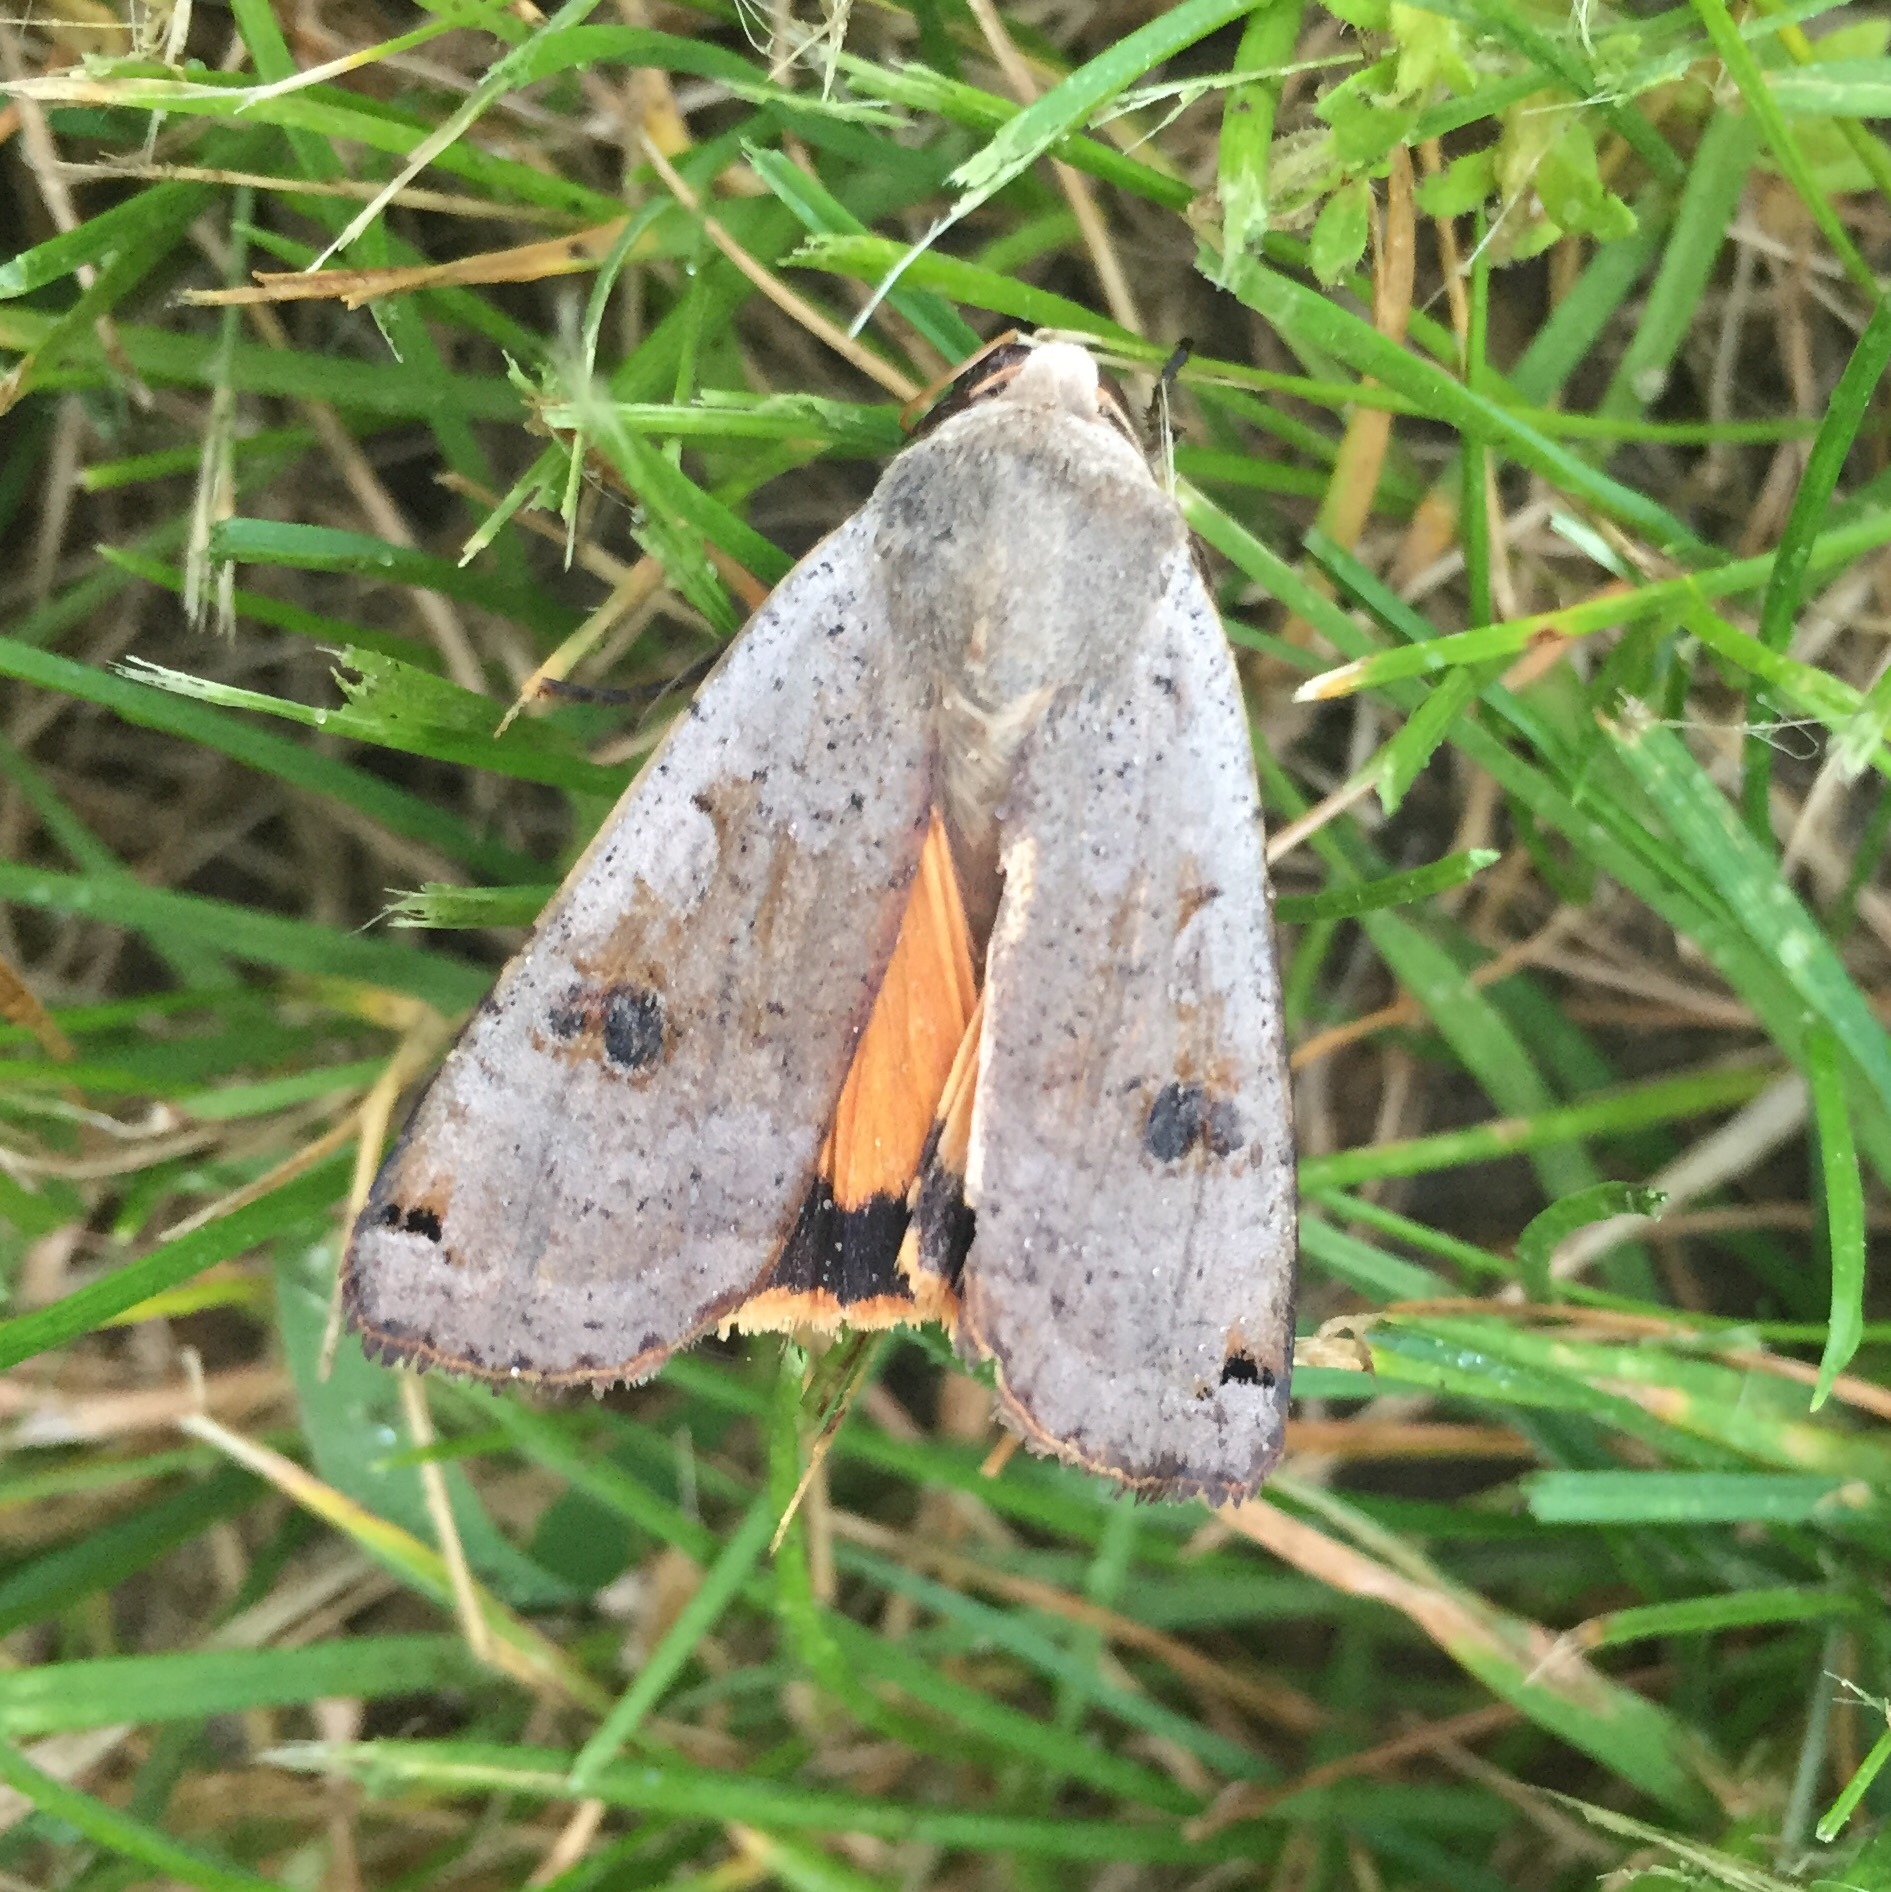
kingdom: Animalia
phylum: Arthropoda
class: Insecta
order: Lepidoptera
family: Noctuidae
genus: Noctua
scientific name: Noctua pronuba
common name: Large yellow underwing
